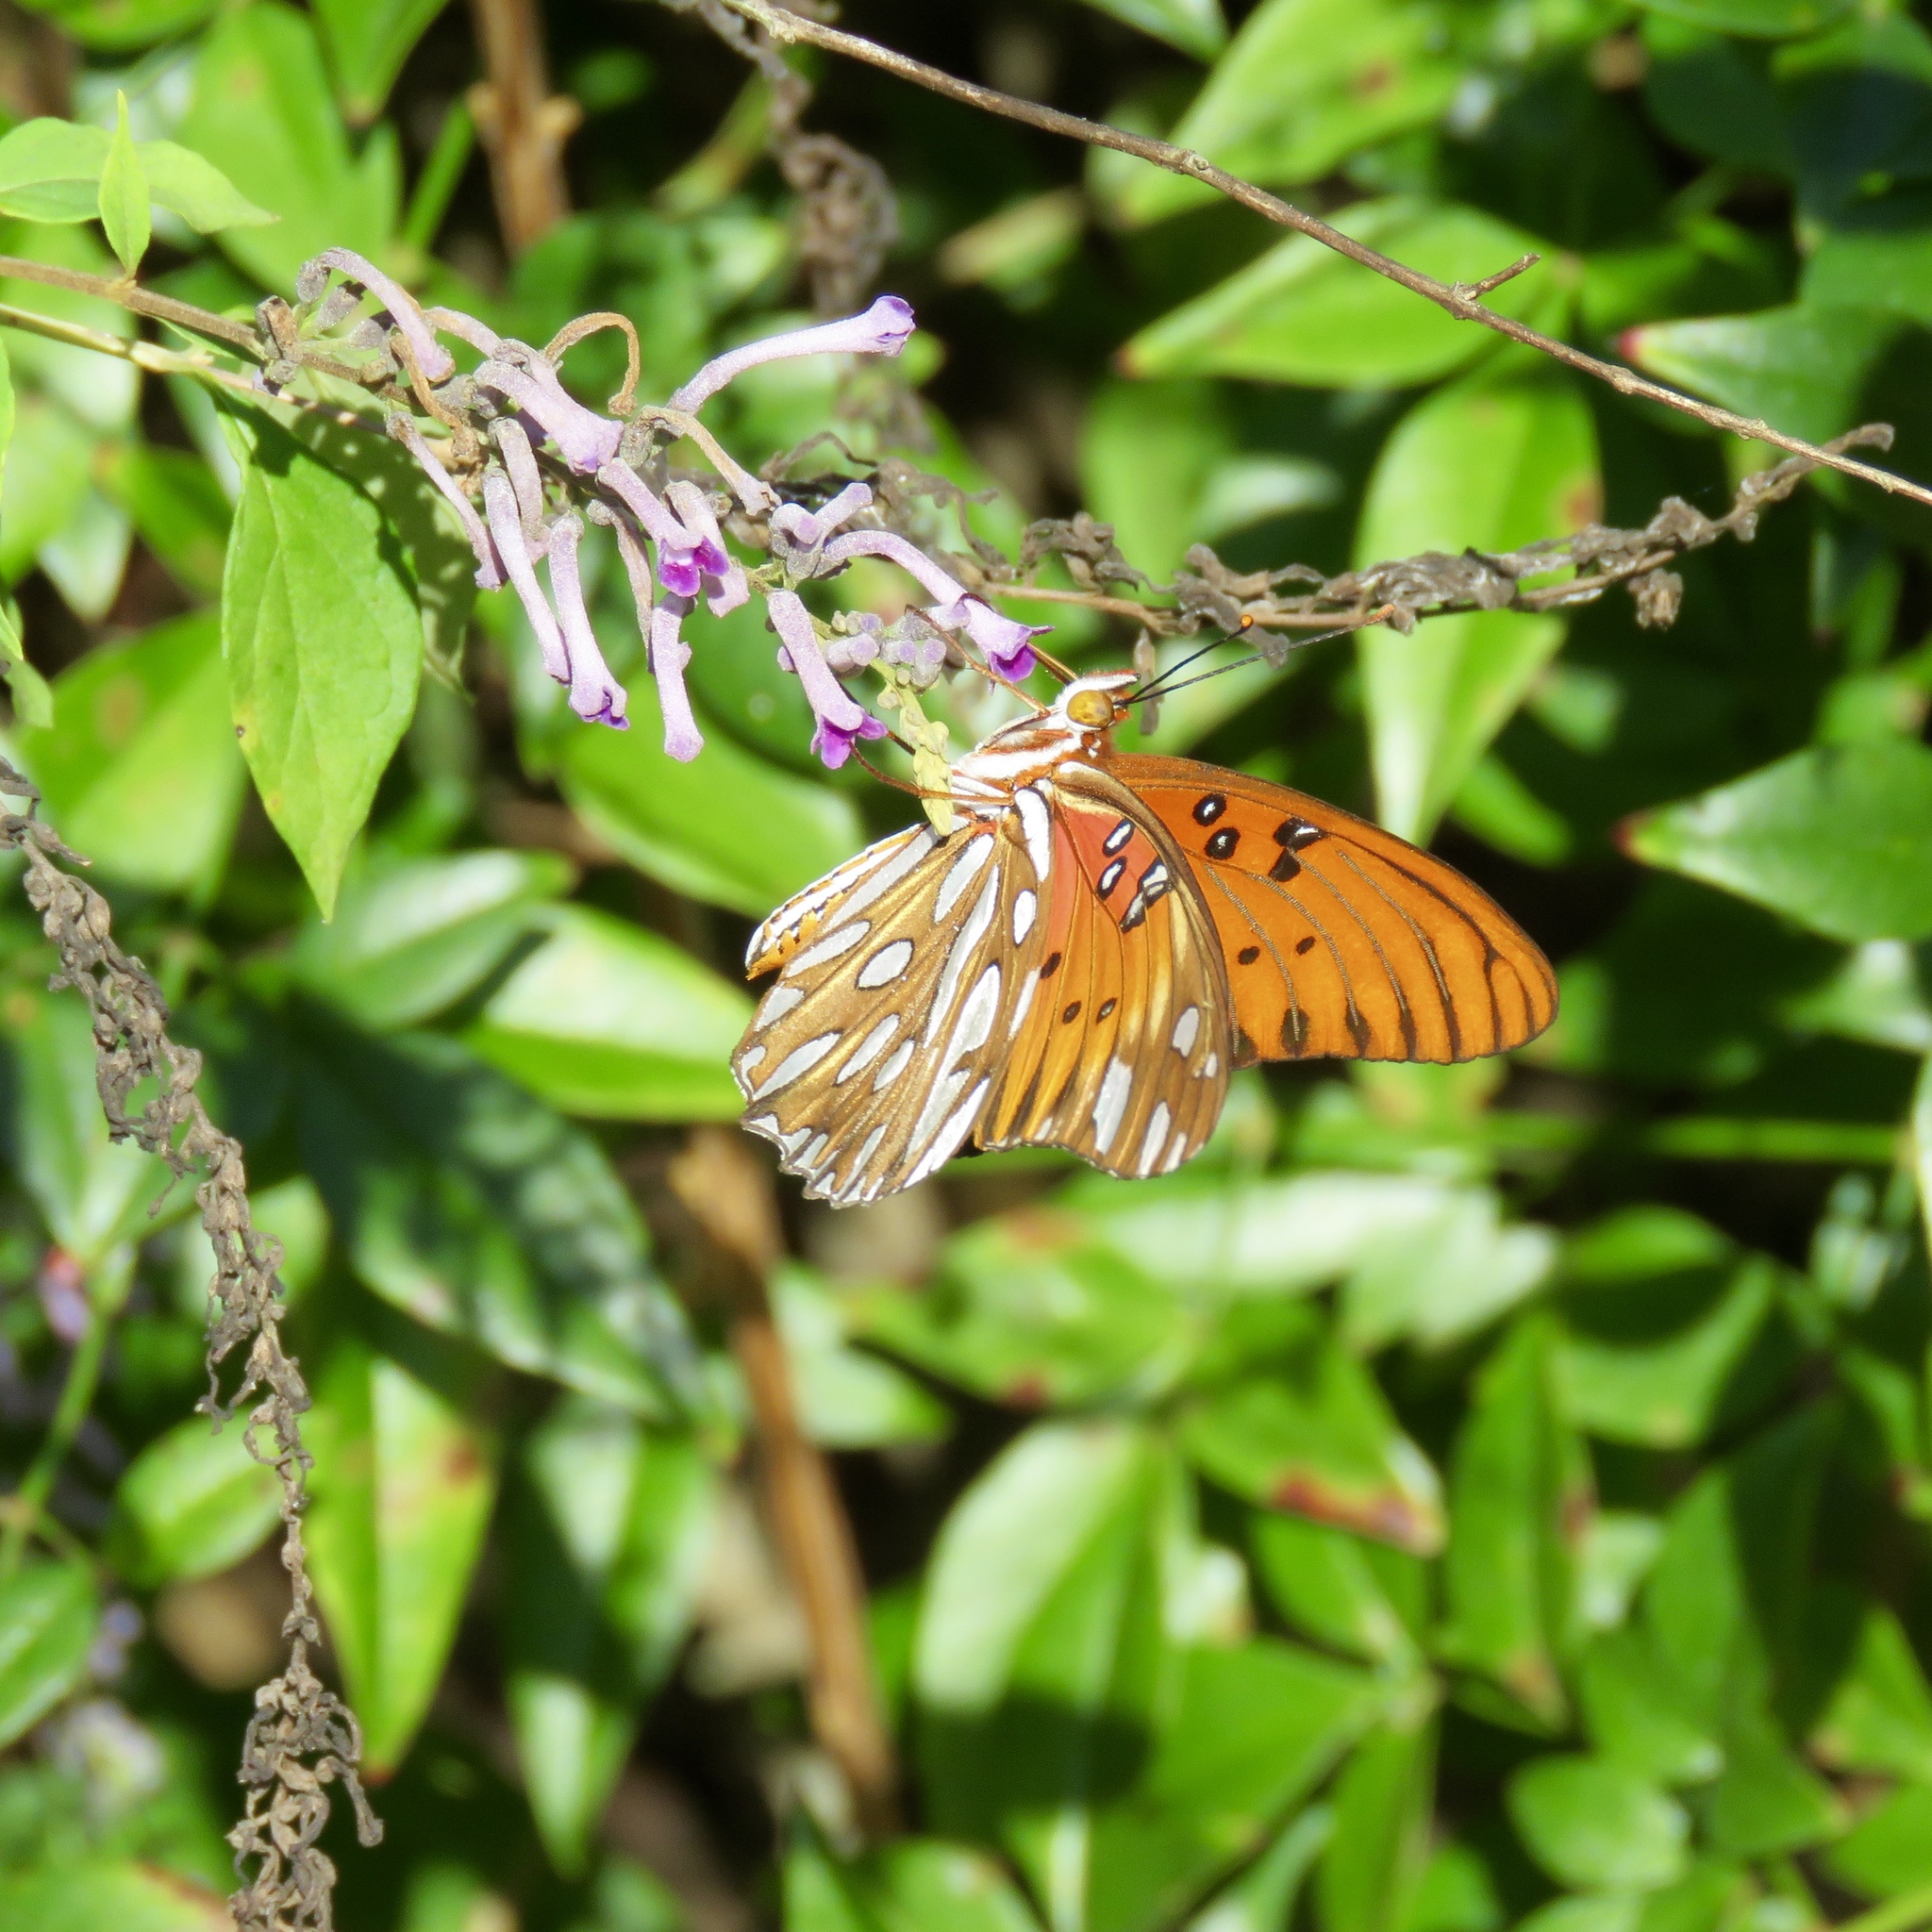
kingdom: Animalia
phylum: Arthropoda
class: Insecta
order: Lepidoptera
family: Nymphalidae
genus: Dione
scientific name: Dione vanillae
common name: Gulf fritillary
